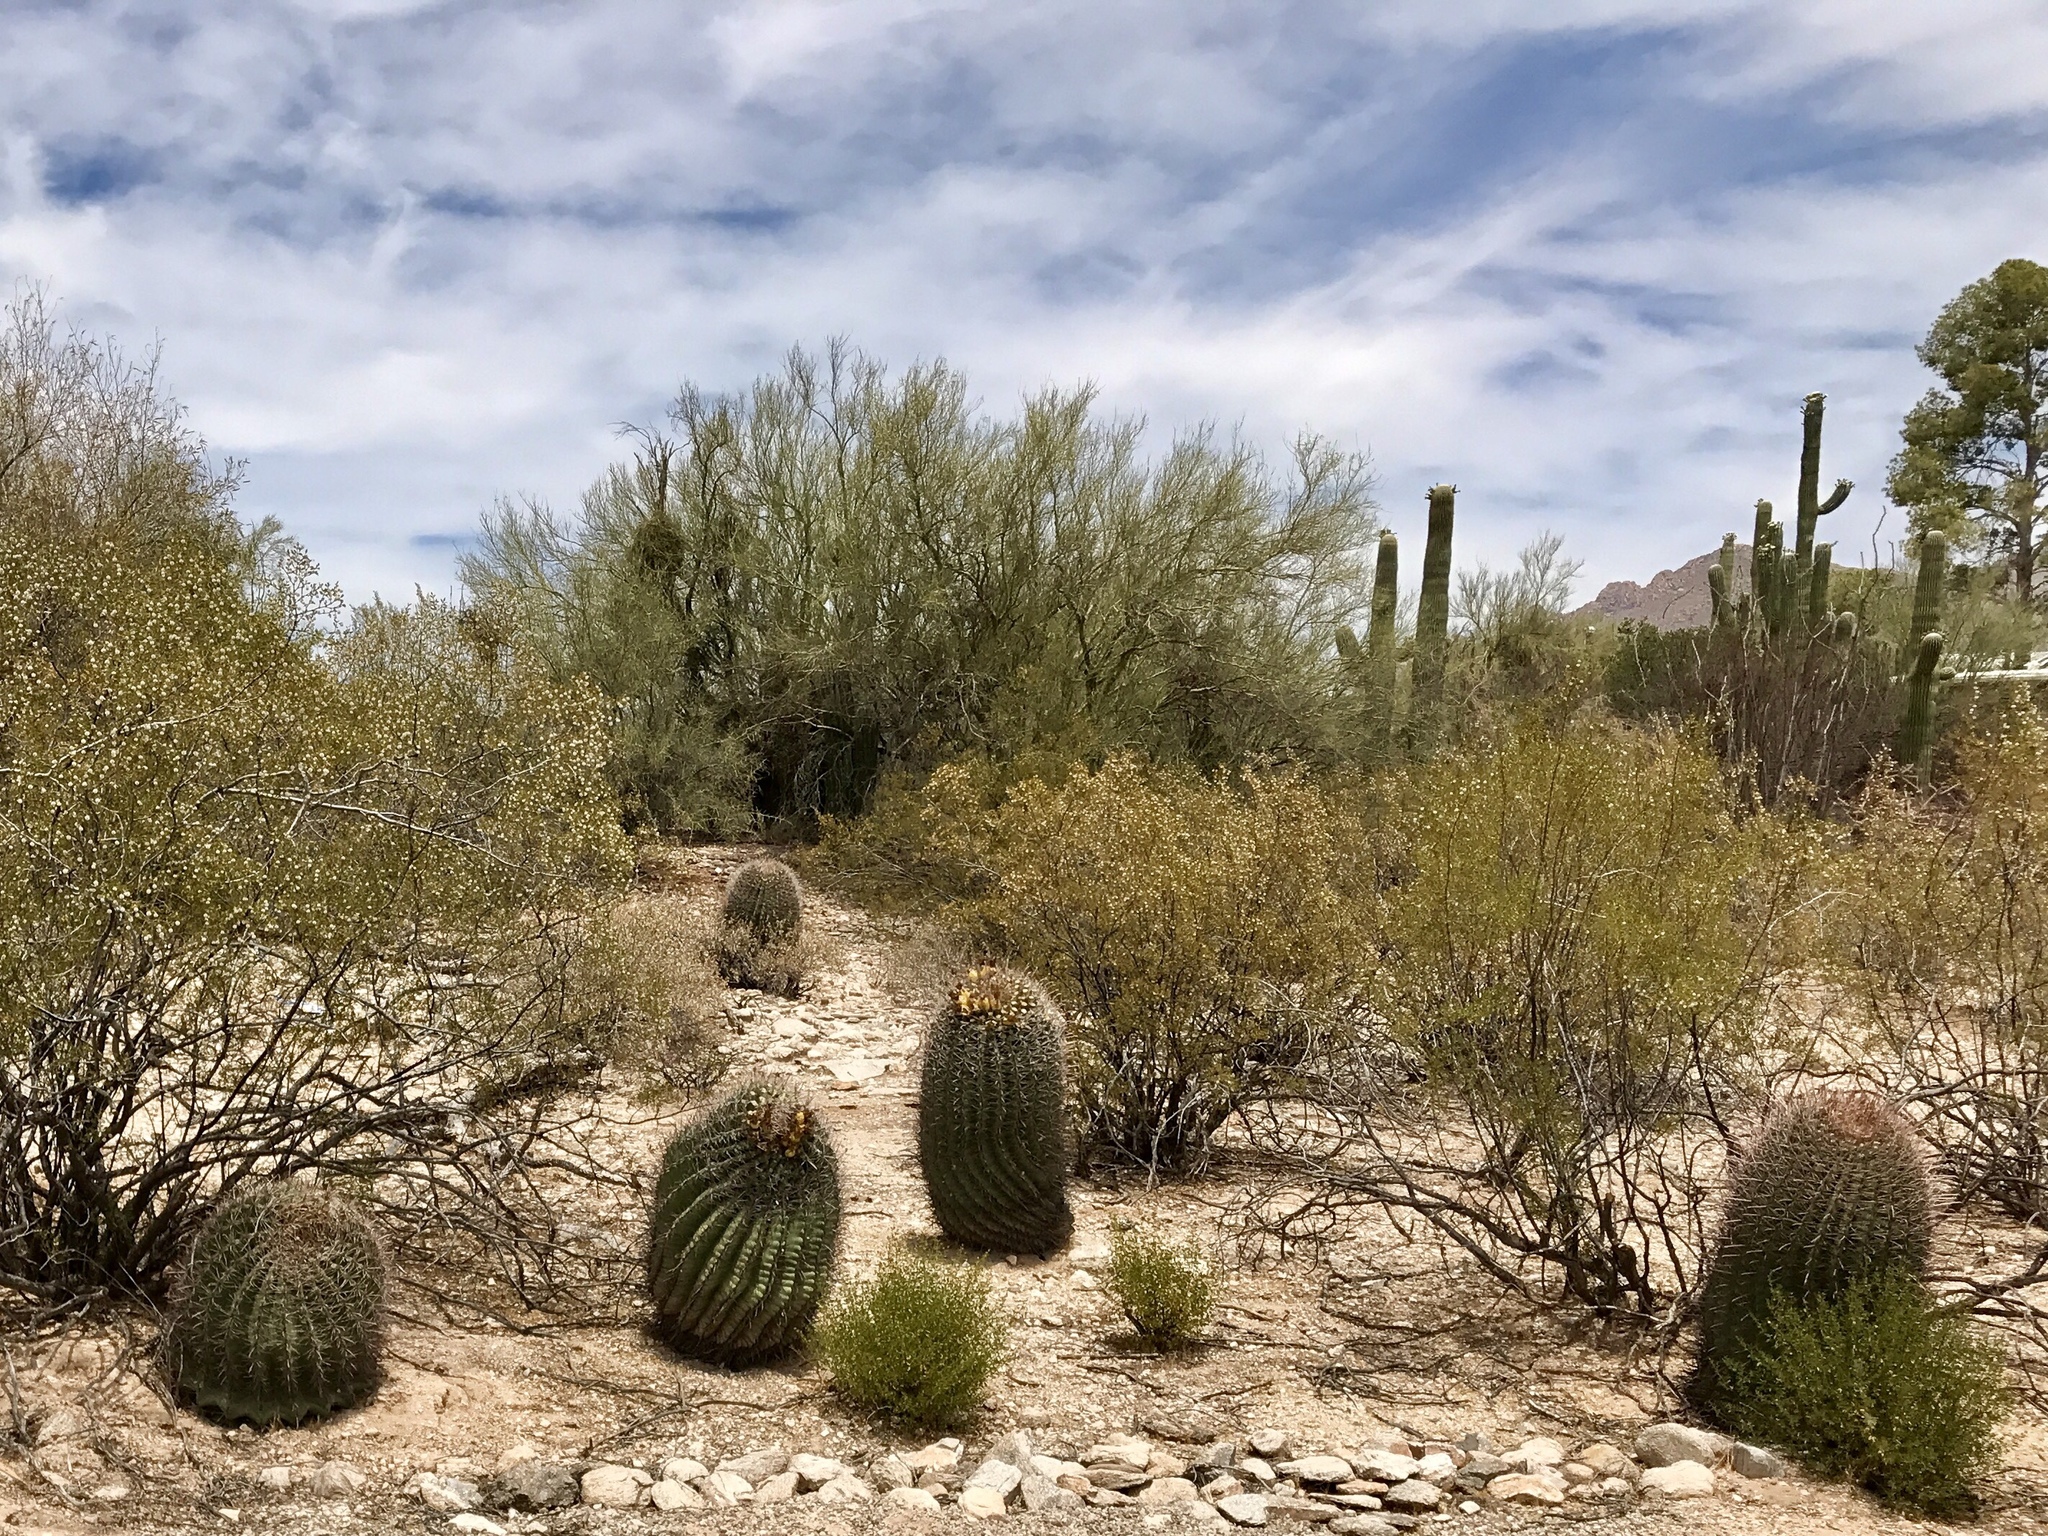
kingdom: Plantae
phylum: Tracheophyta
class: Magnoliopsida
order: Caryophyllales
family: Cactaceae
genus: Ferocactus
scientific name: Ferocactus wislizeni
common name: Candy barrel cactus
